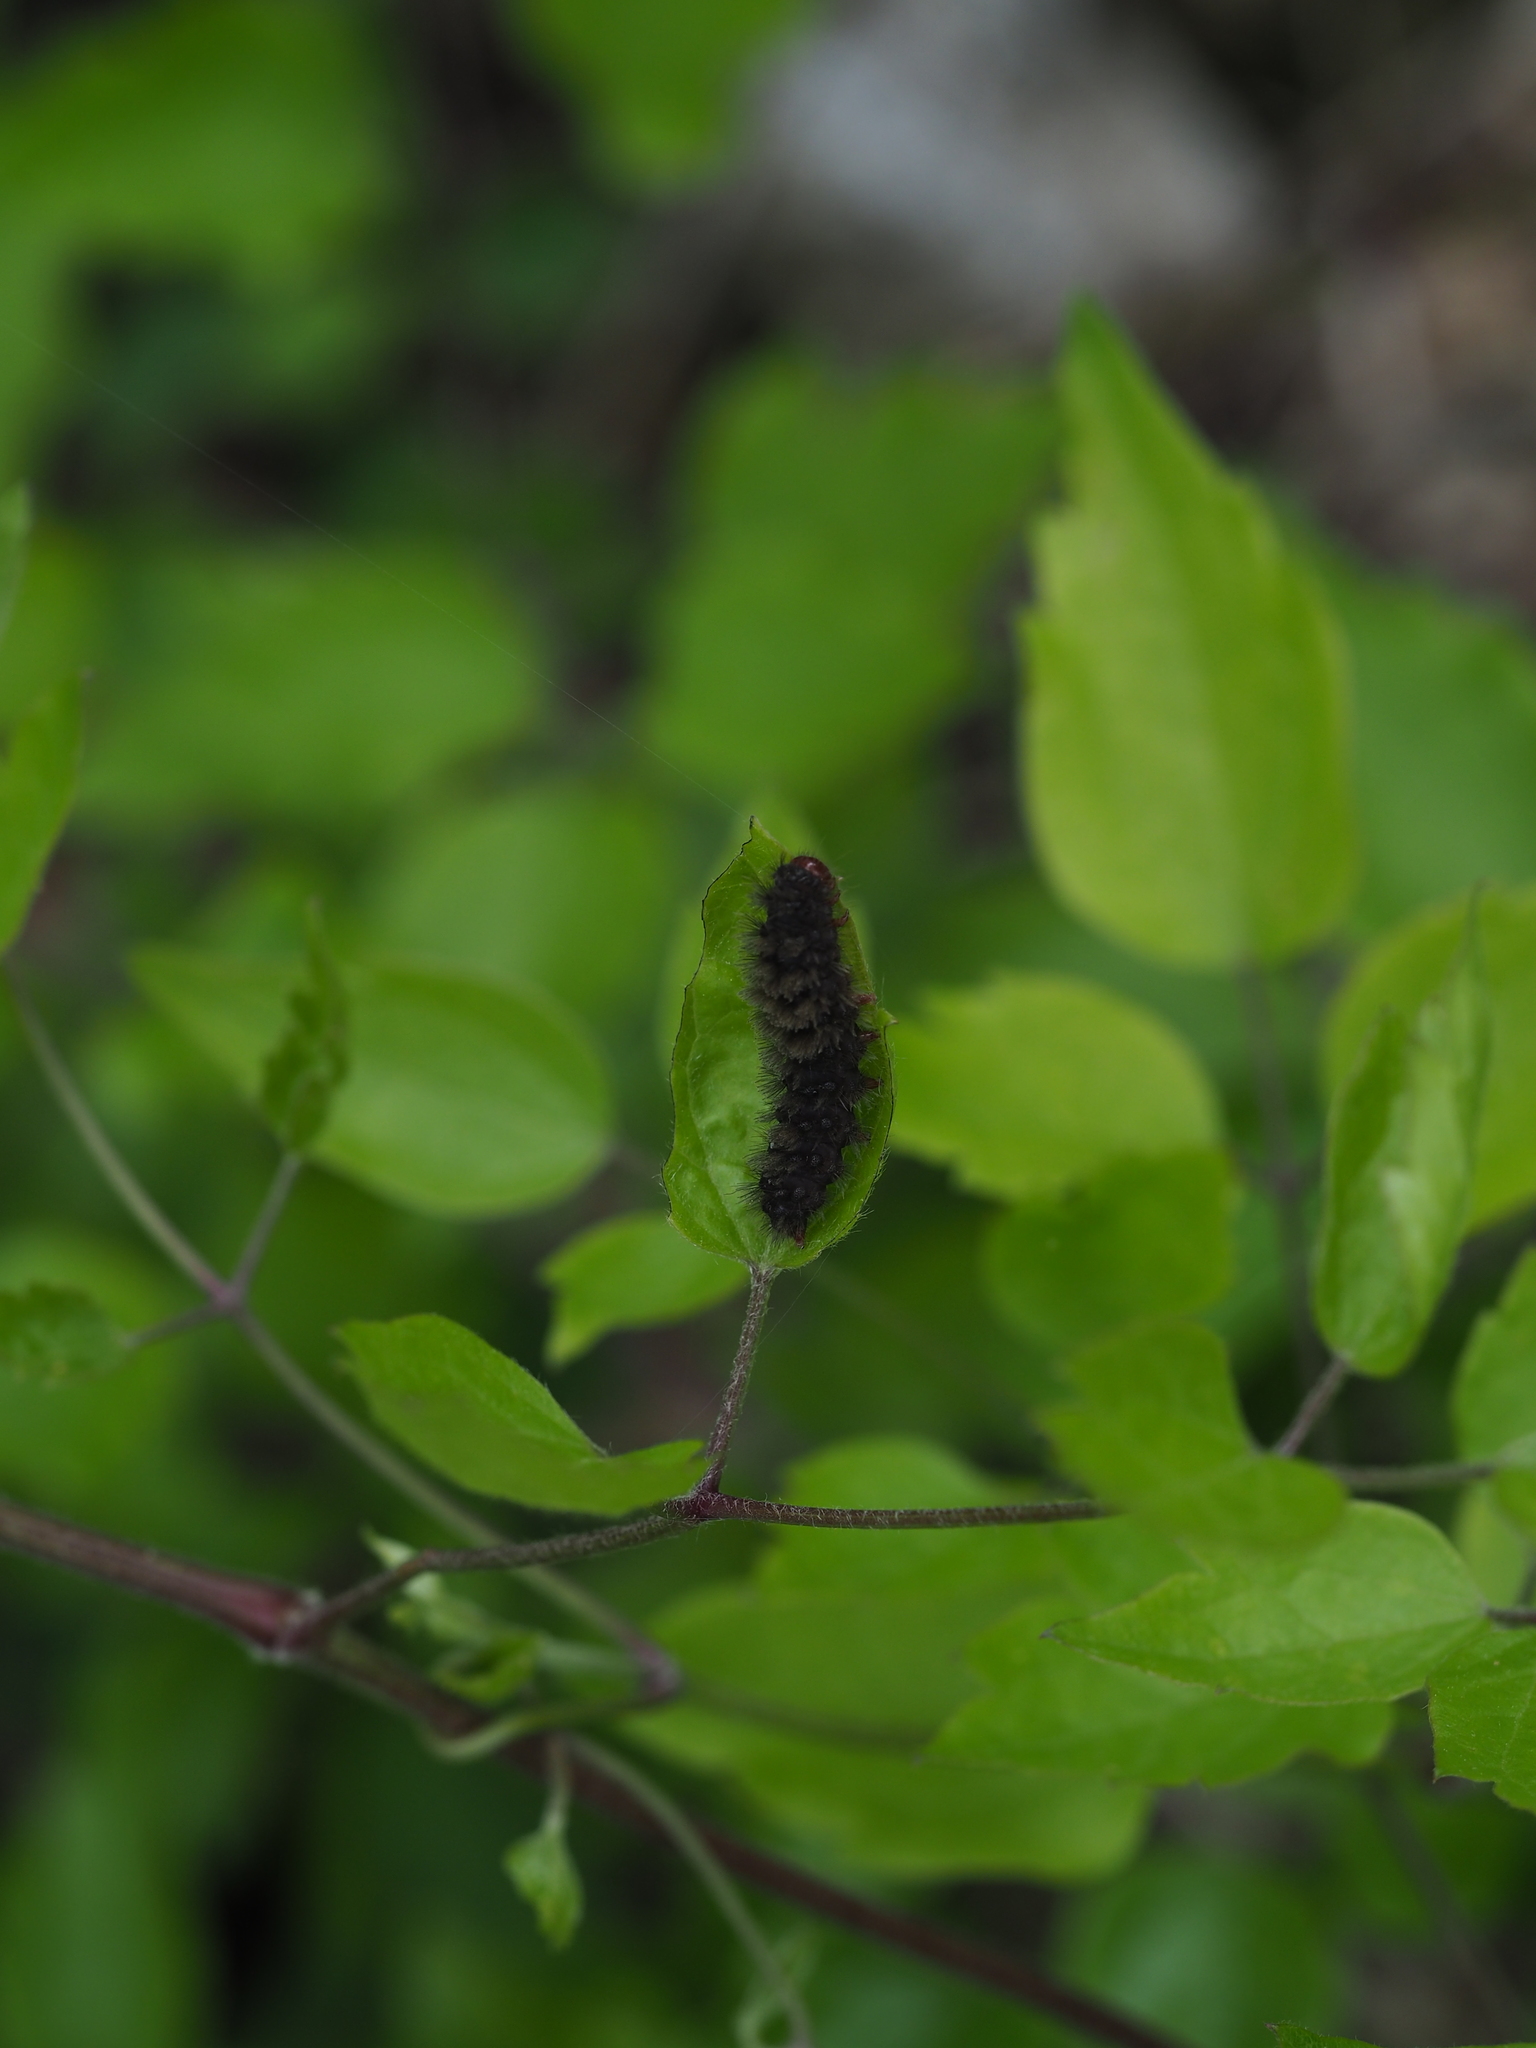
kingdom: Animalia
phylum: Arthropoda
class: Insecta
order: Lepidoptera
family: Erebidae
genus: Amata
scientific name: Amata phegea
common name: Nine-spotted
